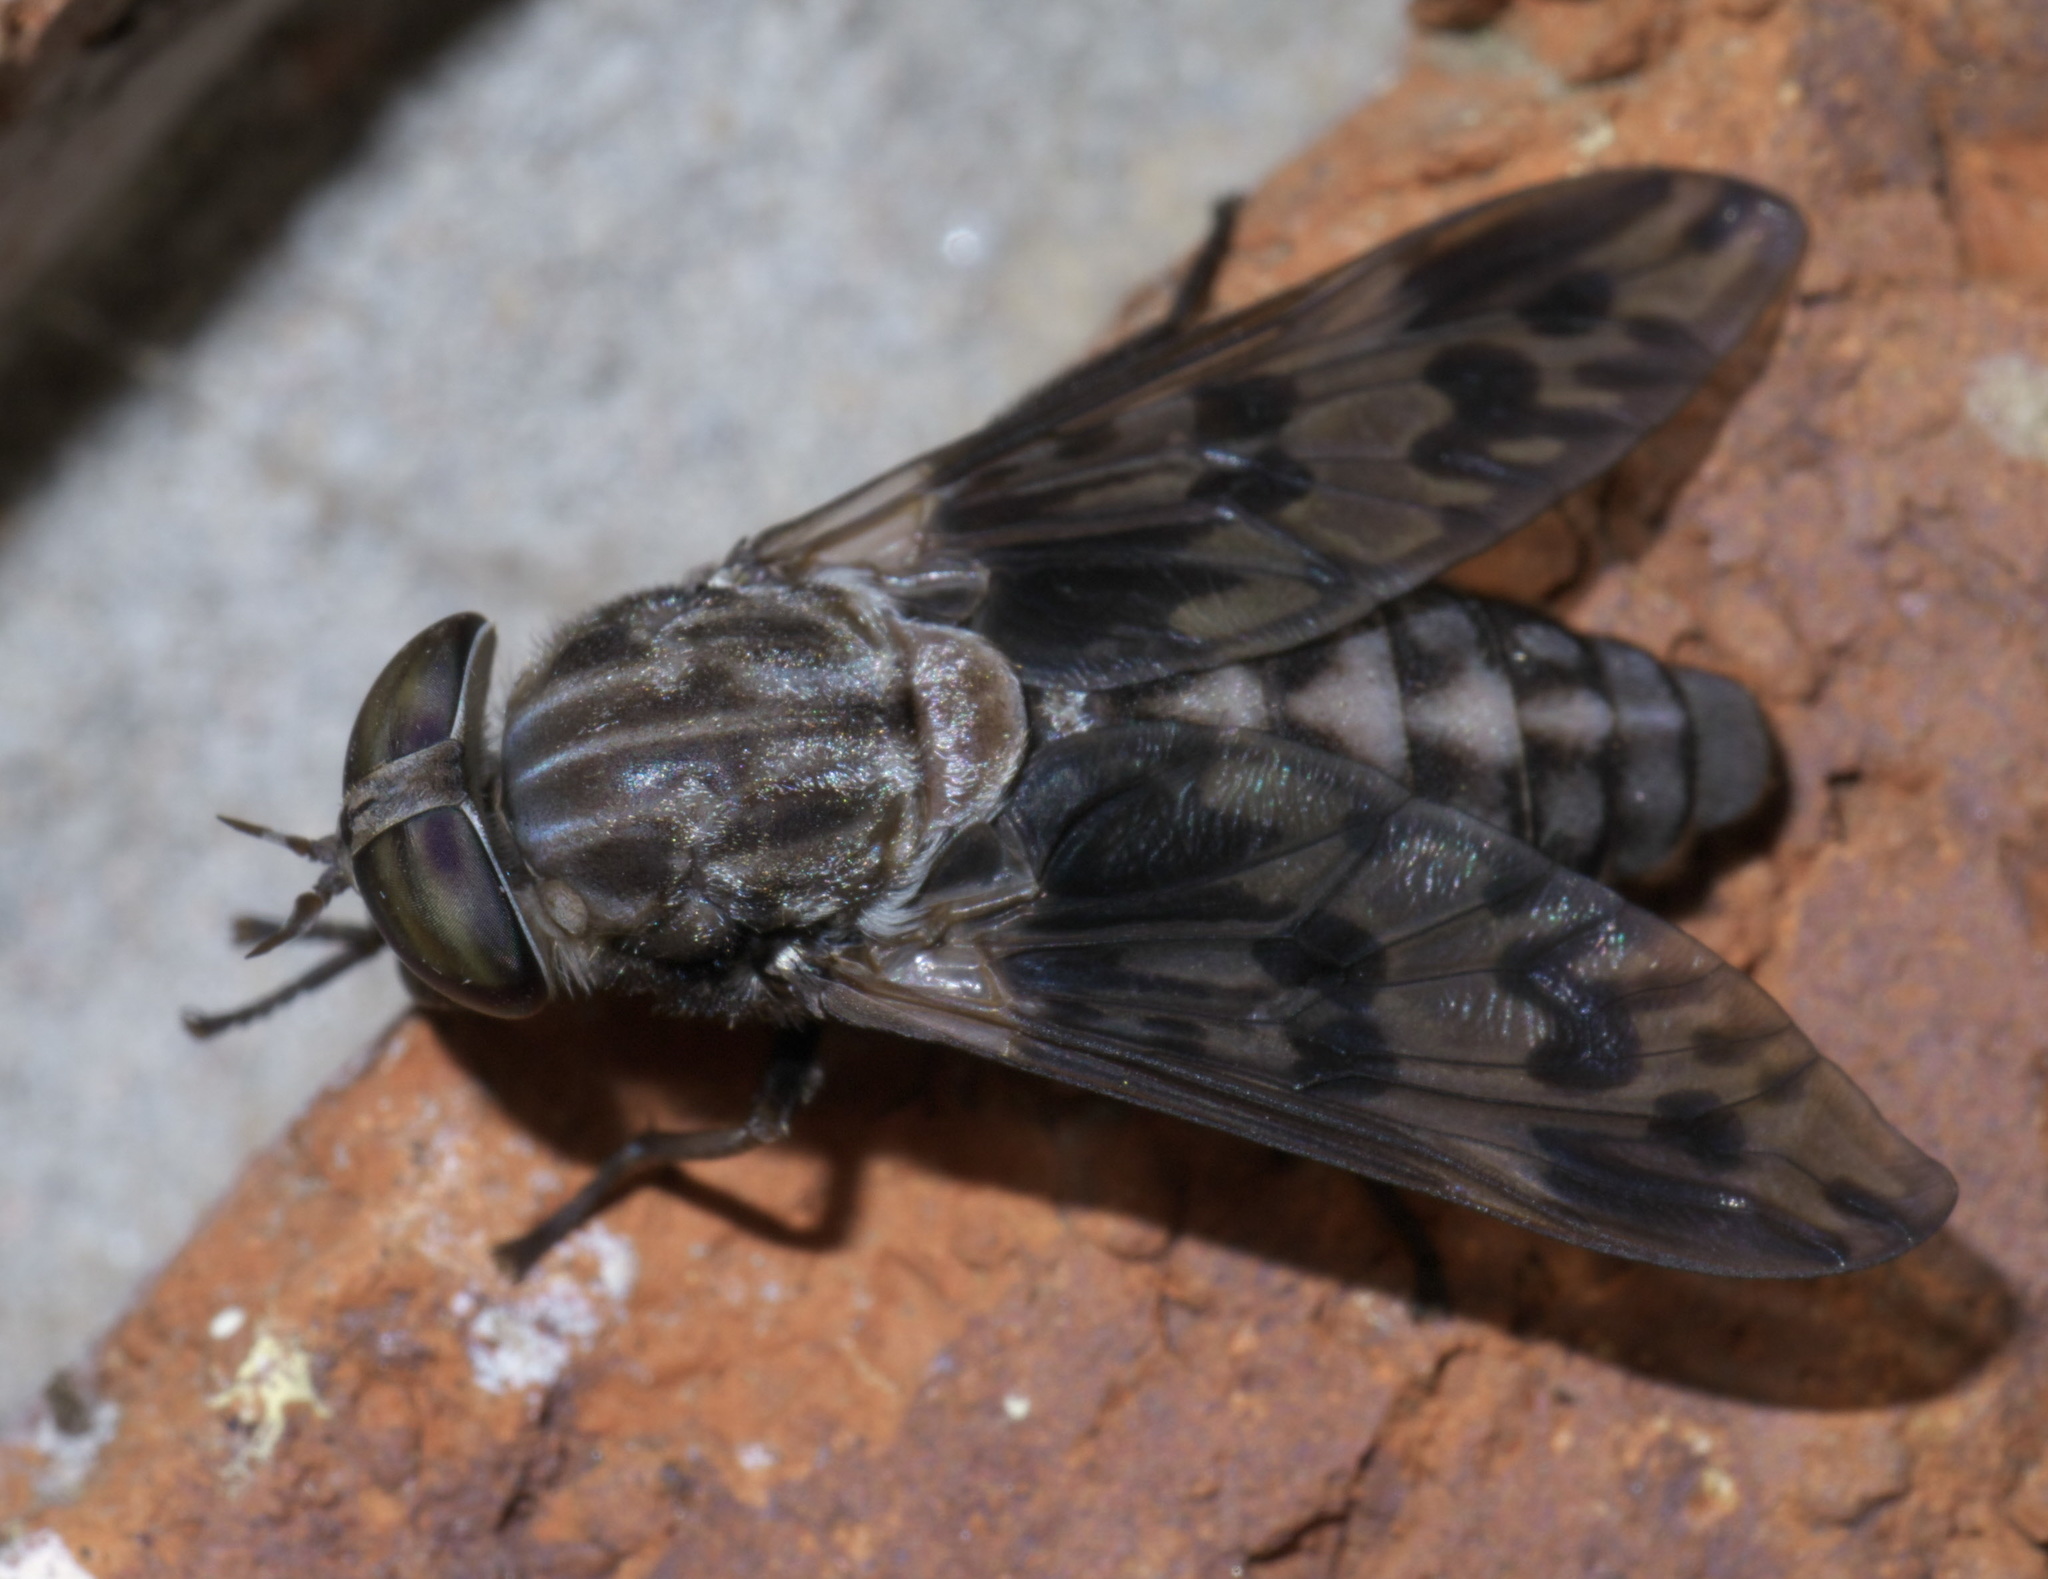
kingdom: Animalia
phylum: Arthropoda
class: Insecta
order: Diptera
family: Tabanidae
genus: Tabanus
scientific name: Tabanus venustus
